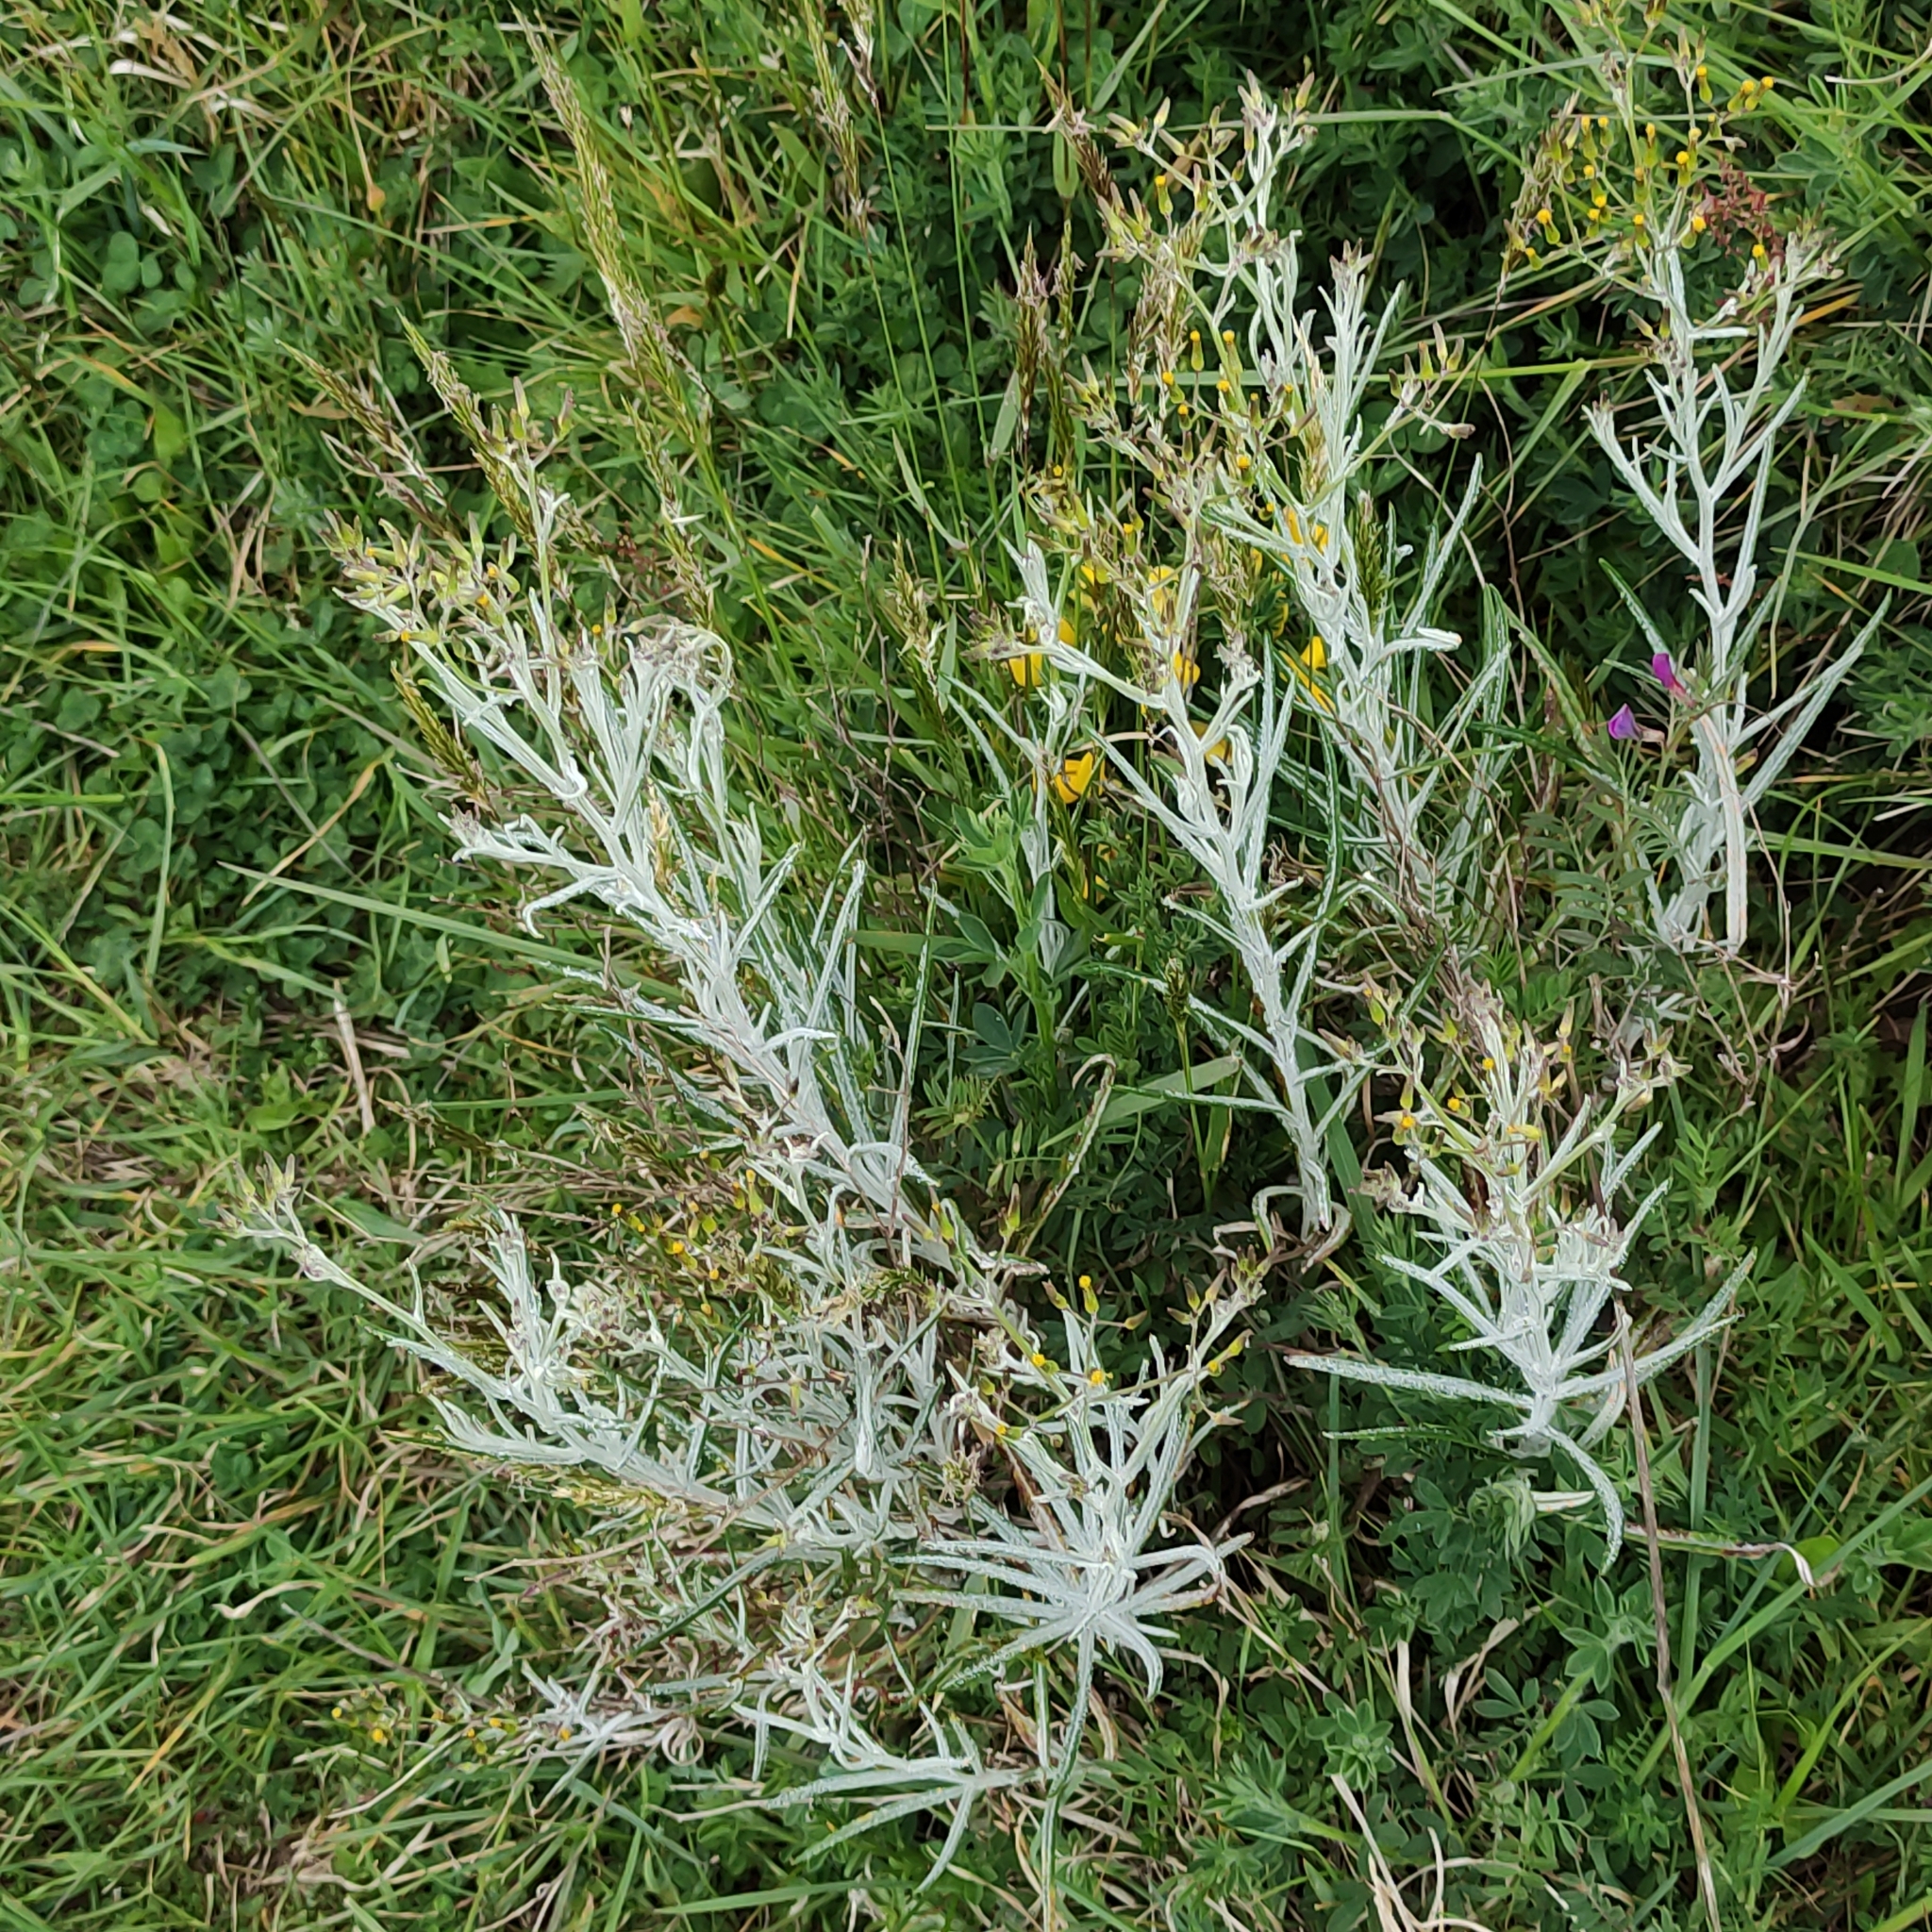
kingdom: Plantae
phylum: Tracheophyta
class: Magnoliopsida
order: Asterales
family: Asteraceae
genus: Senecio
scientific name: Senecio quadridentatus
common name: Cotton fireweed
